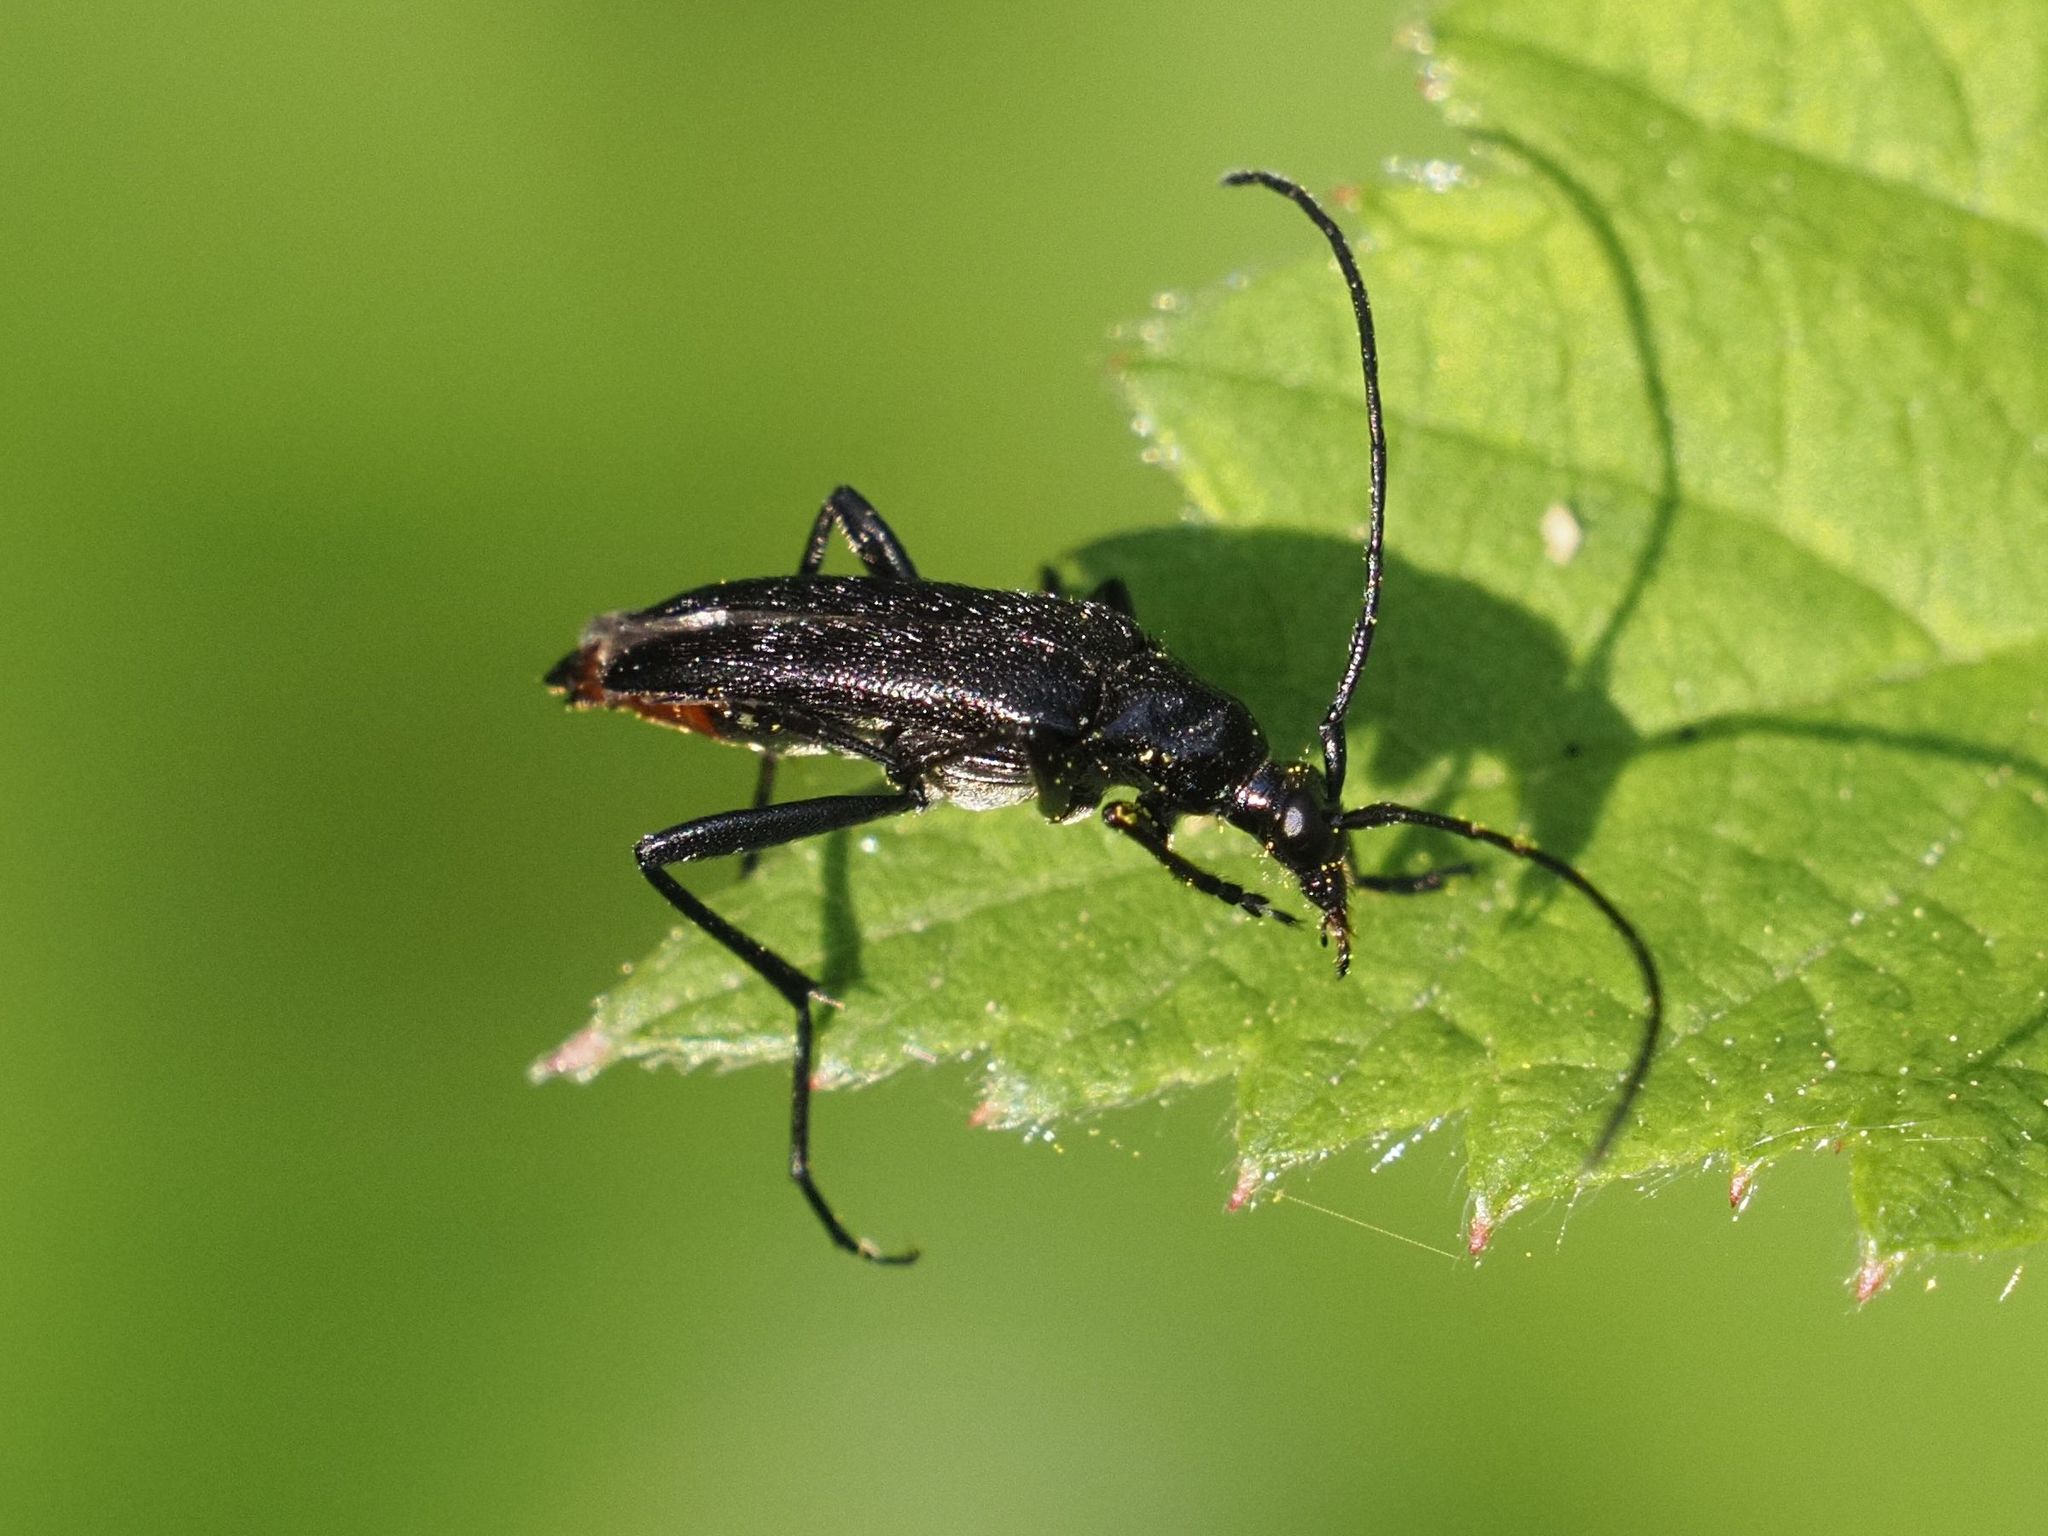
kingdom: Animalia
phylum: Arthropoda
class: Insecta
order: Coleoptera
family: Cerambycidae
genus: Stenurella
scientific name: Stenurella nigra
